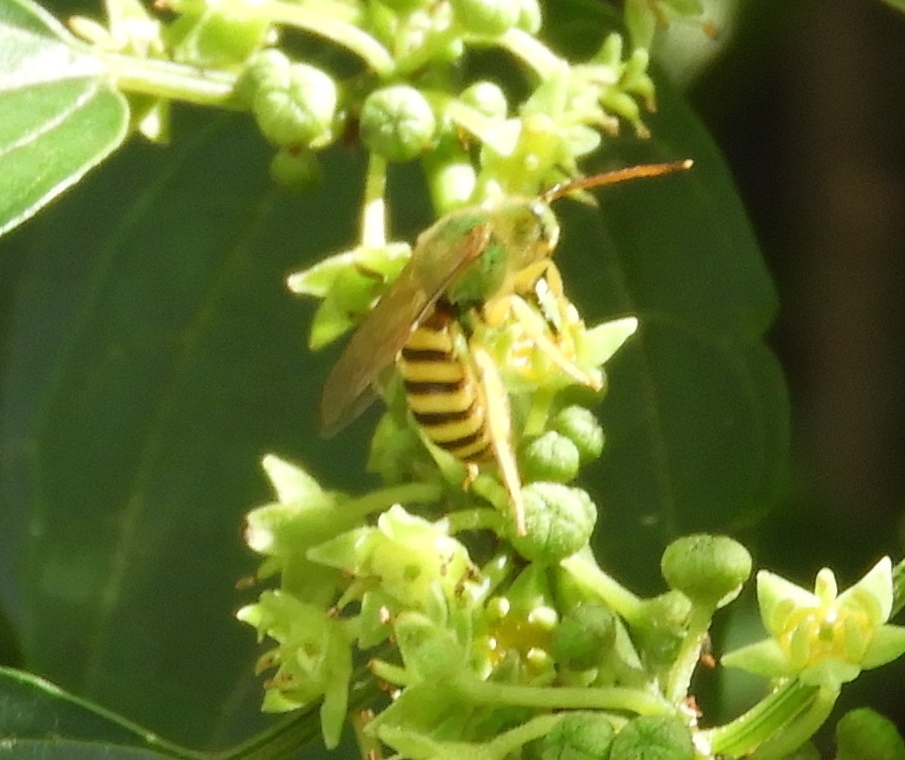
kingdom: Animalia
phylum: Arthropoda
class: Insecta
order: Hymenoptera
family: Halictidae
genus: Agapostemon
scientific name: Agapostemon
